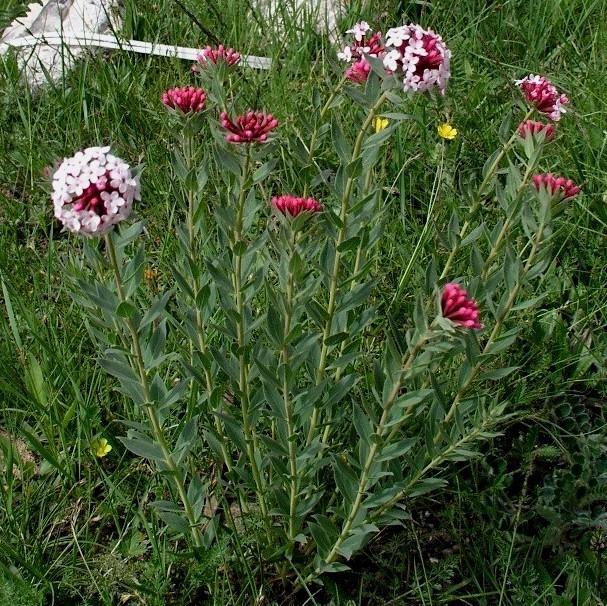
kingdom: Plantae
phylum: Tracheophyta
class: Magnoliopsida
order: Malvales
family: Thymelaeaceae
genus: Stellera
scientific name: Stellera chamaejasme
